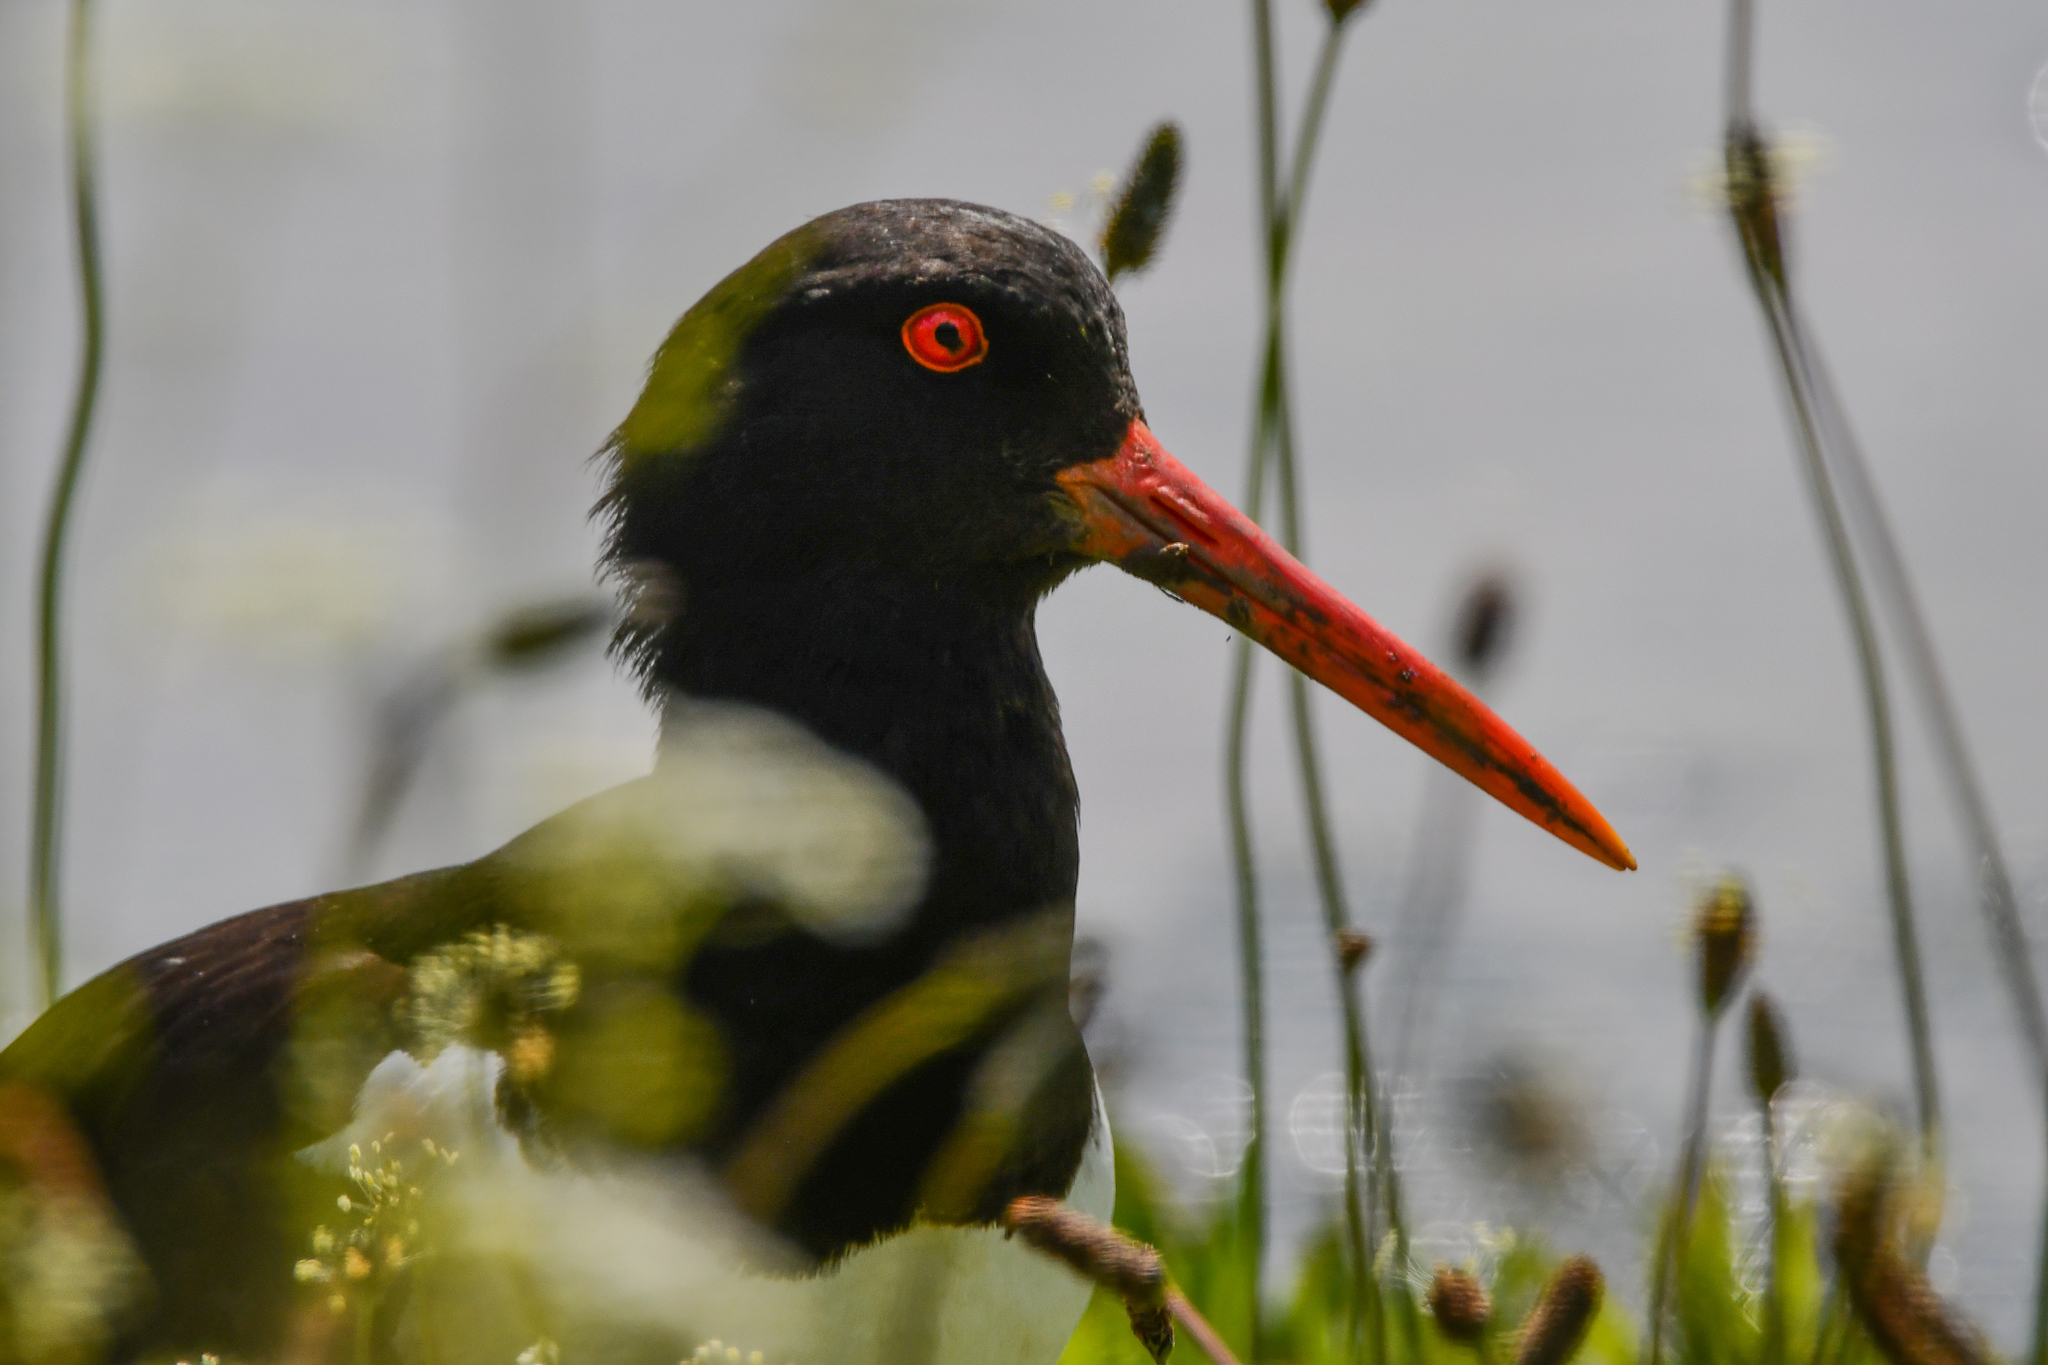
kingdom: Animalia
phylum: Chordata
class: Aves
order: Charadriiformes
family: Haematopodidae
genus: Haematopus
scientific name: Haematopus ostralegus
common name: Eurasian oystercatcher
